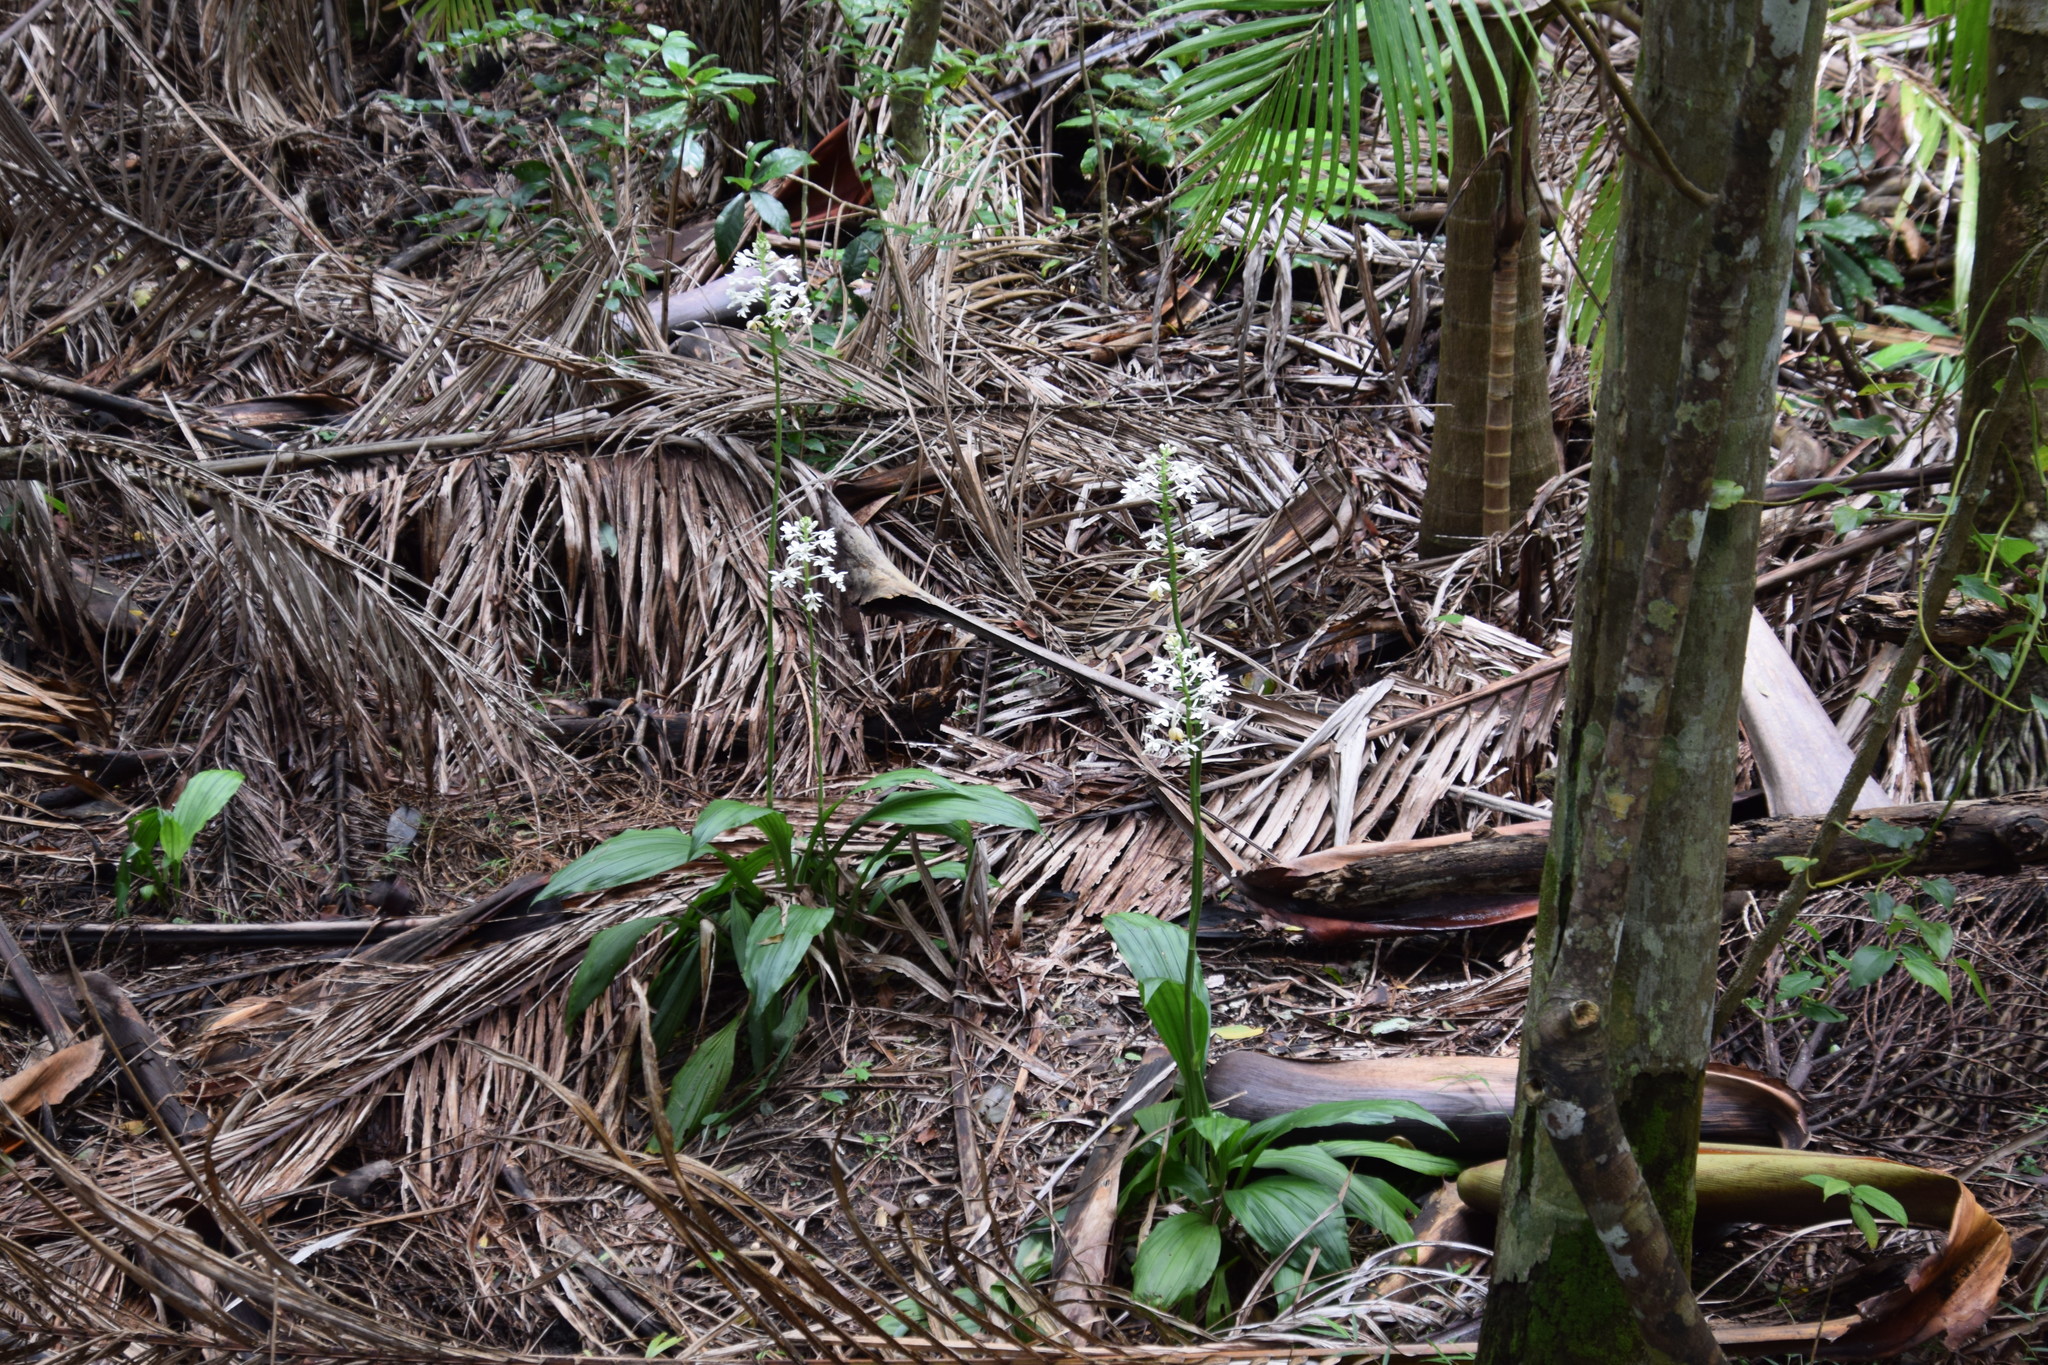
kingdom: Plantae
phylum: Tracheophyta
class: Liliopsida
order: Asparagales
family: Orchidaceae
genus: Calanthe
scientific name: Calanthe triplicata
